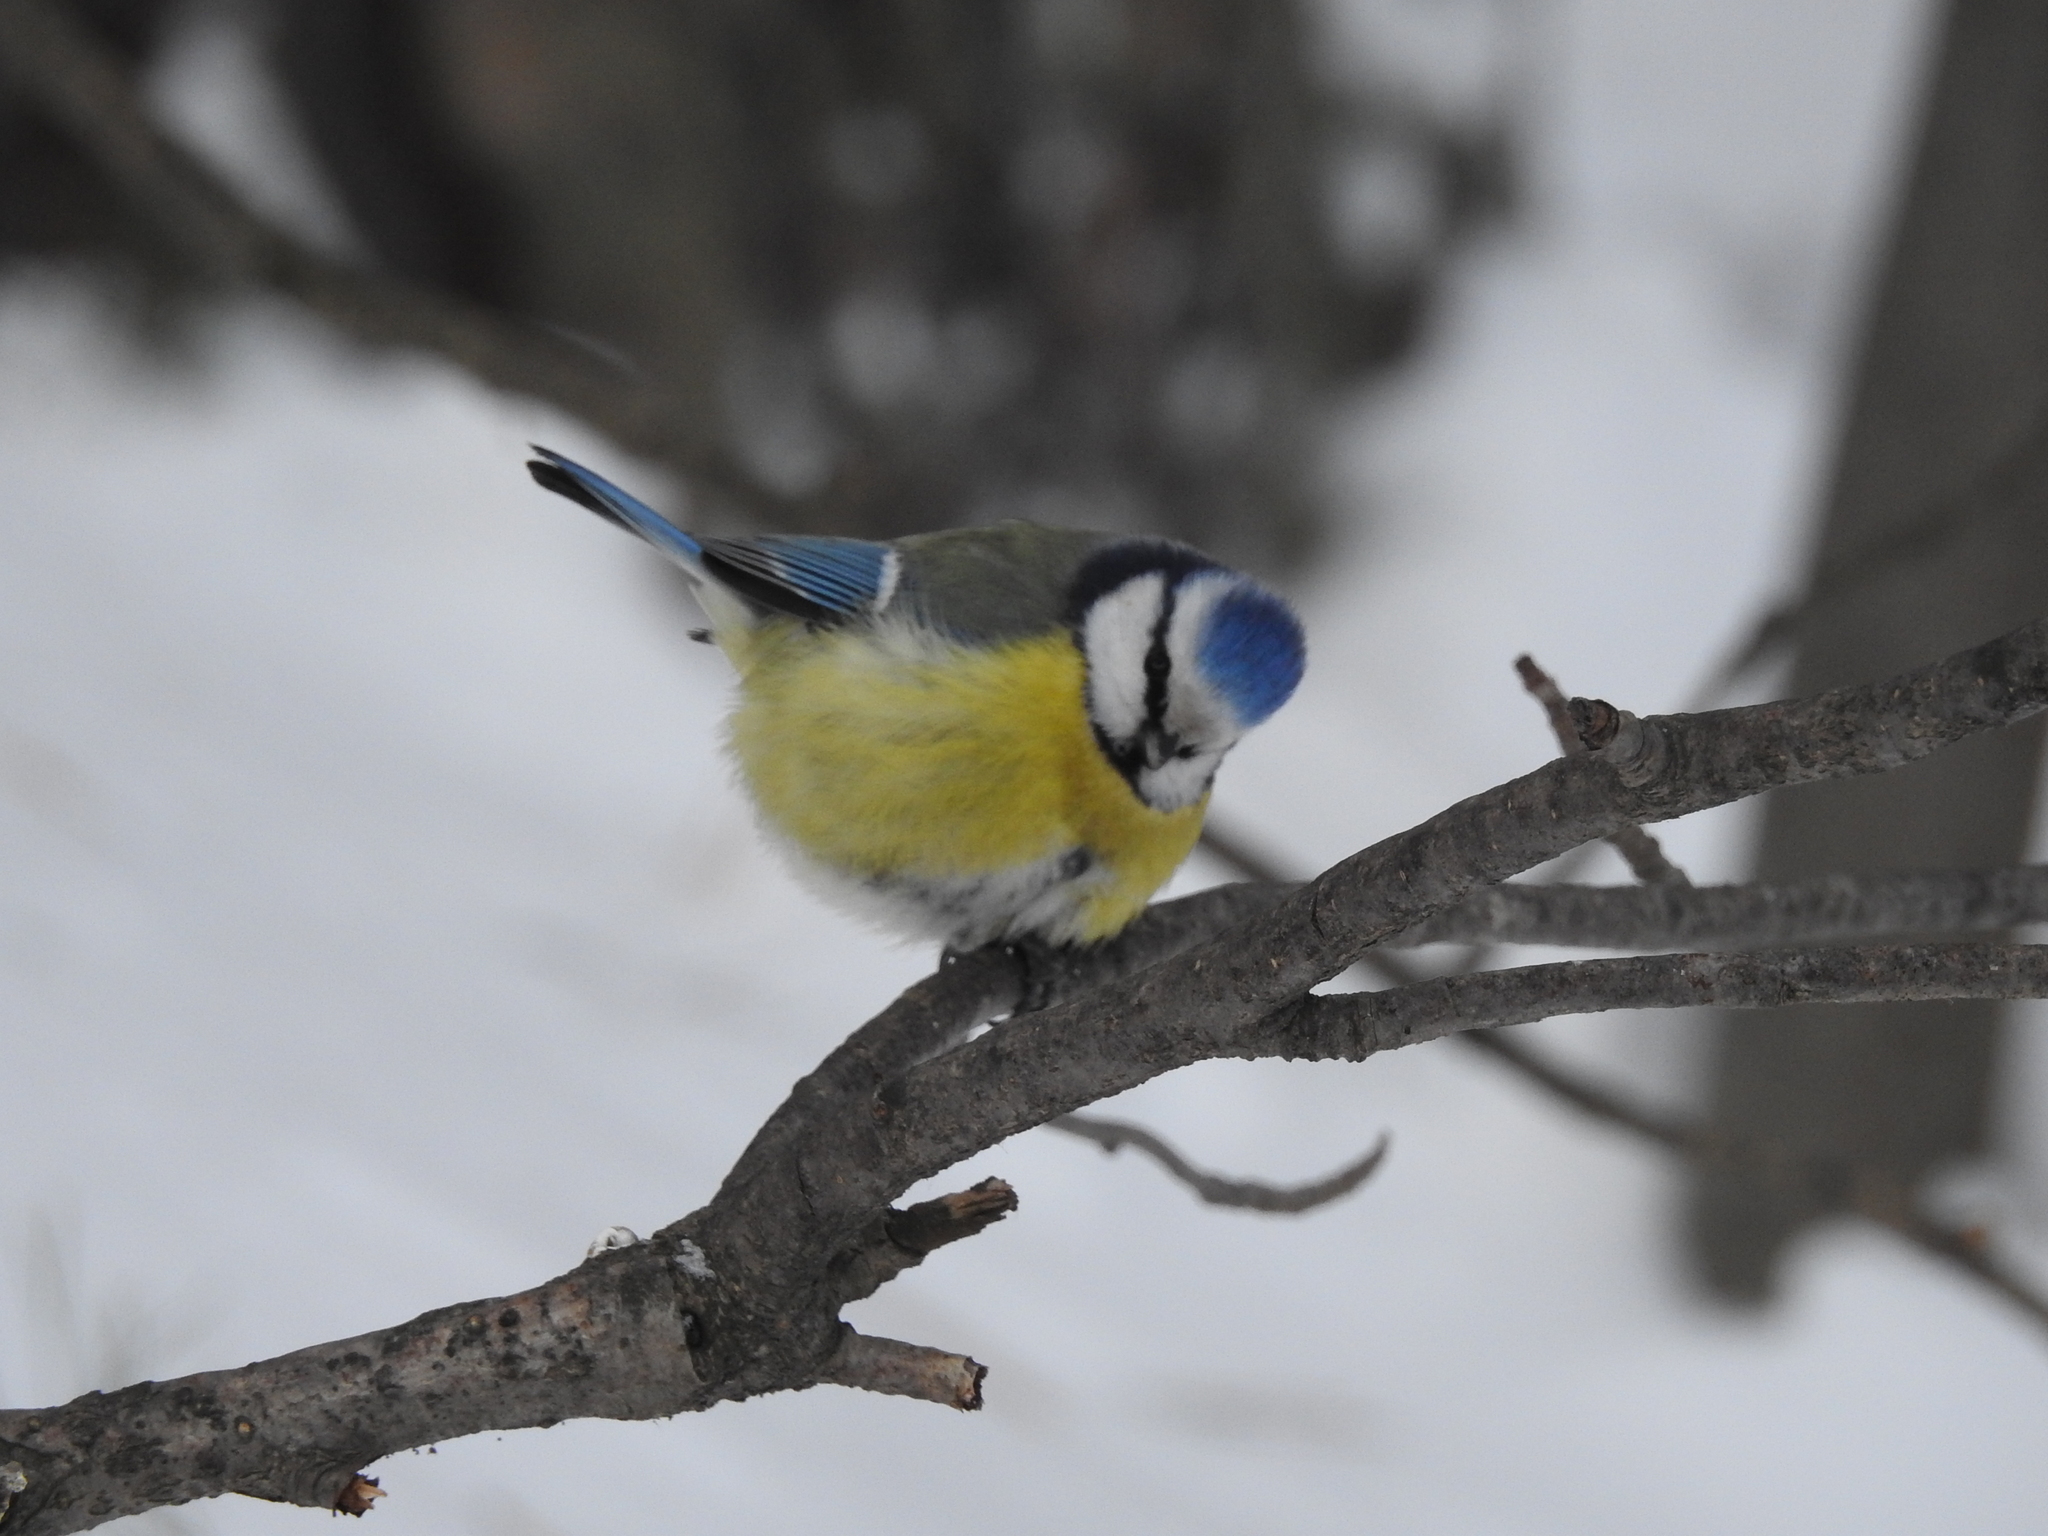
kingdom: Animalia
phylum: Chordata
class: Aves
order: Passeriformes
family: Paridae
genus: Cyanistes
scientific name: Cyanistes caeruleus
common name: Eurasian blue tit
